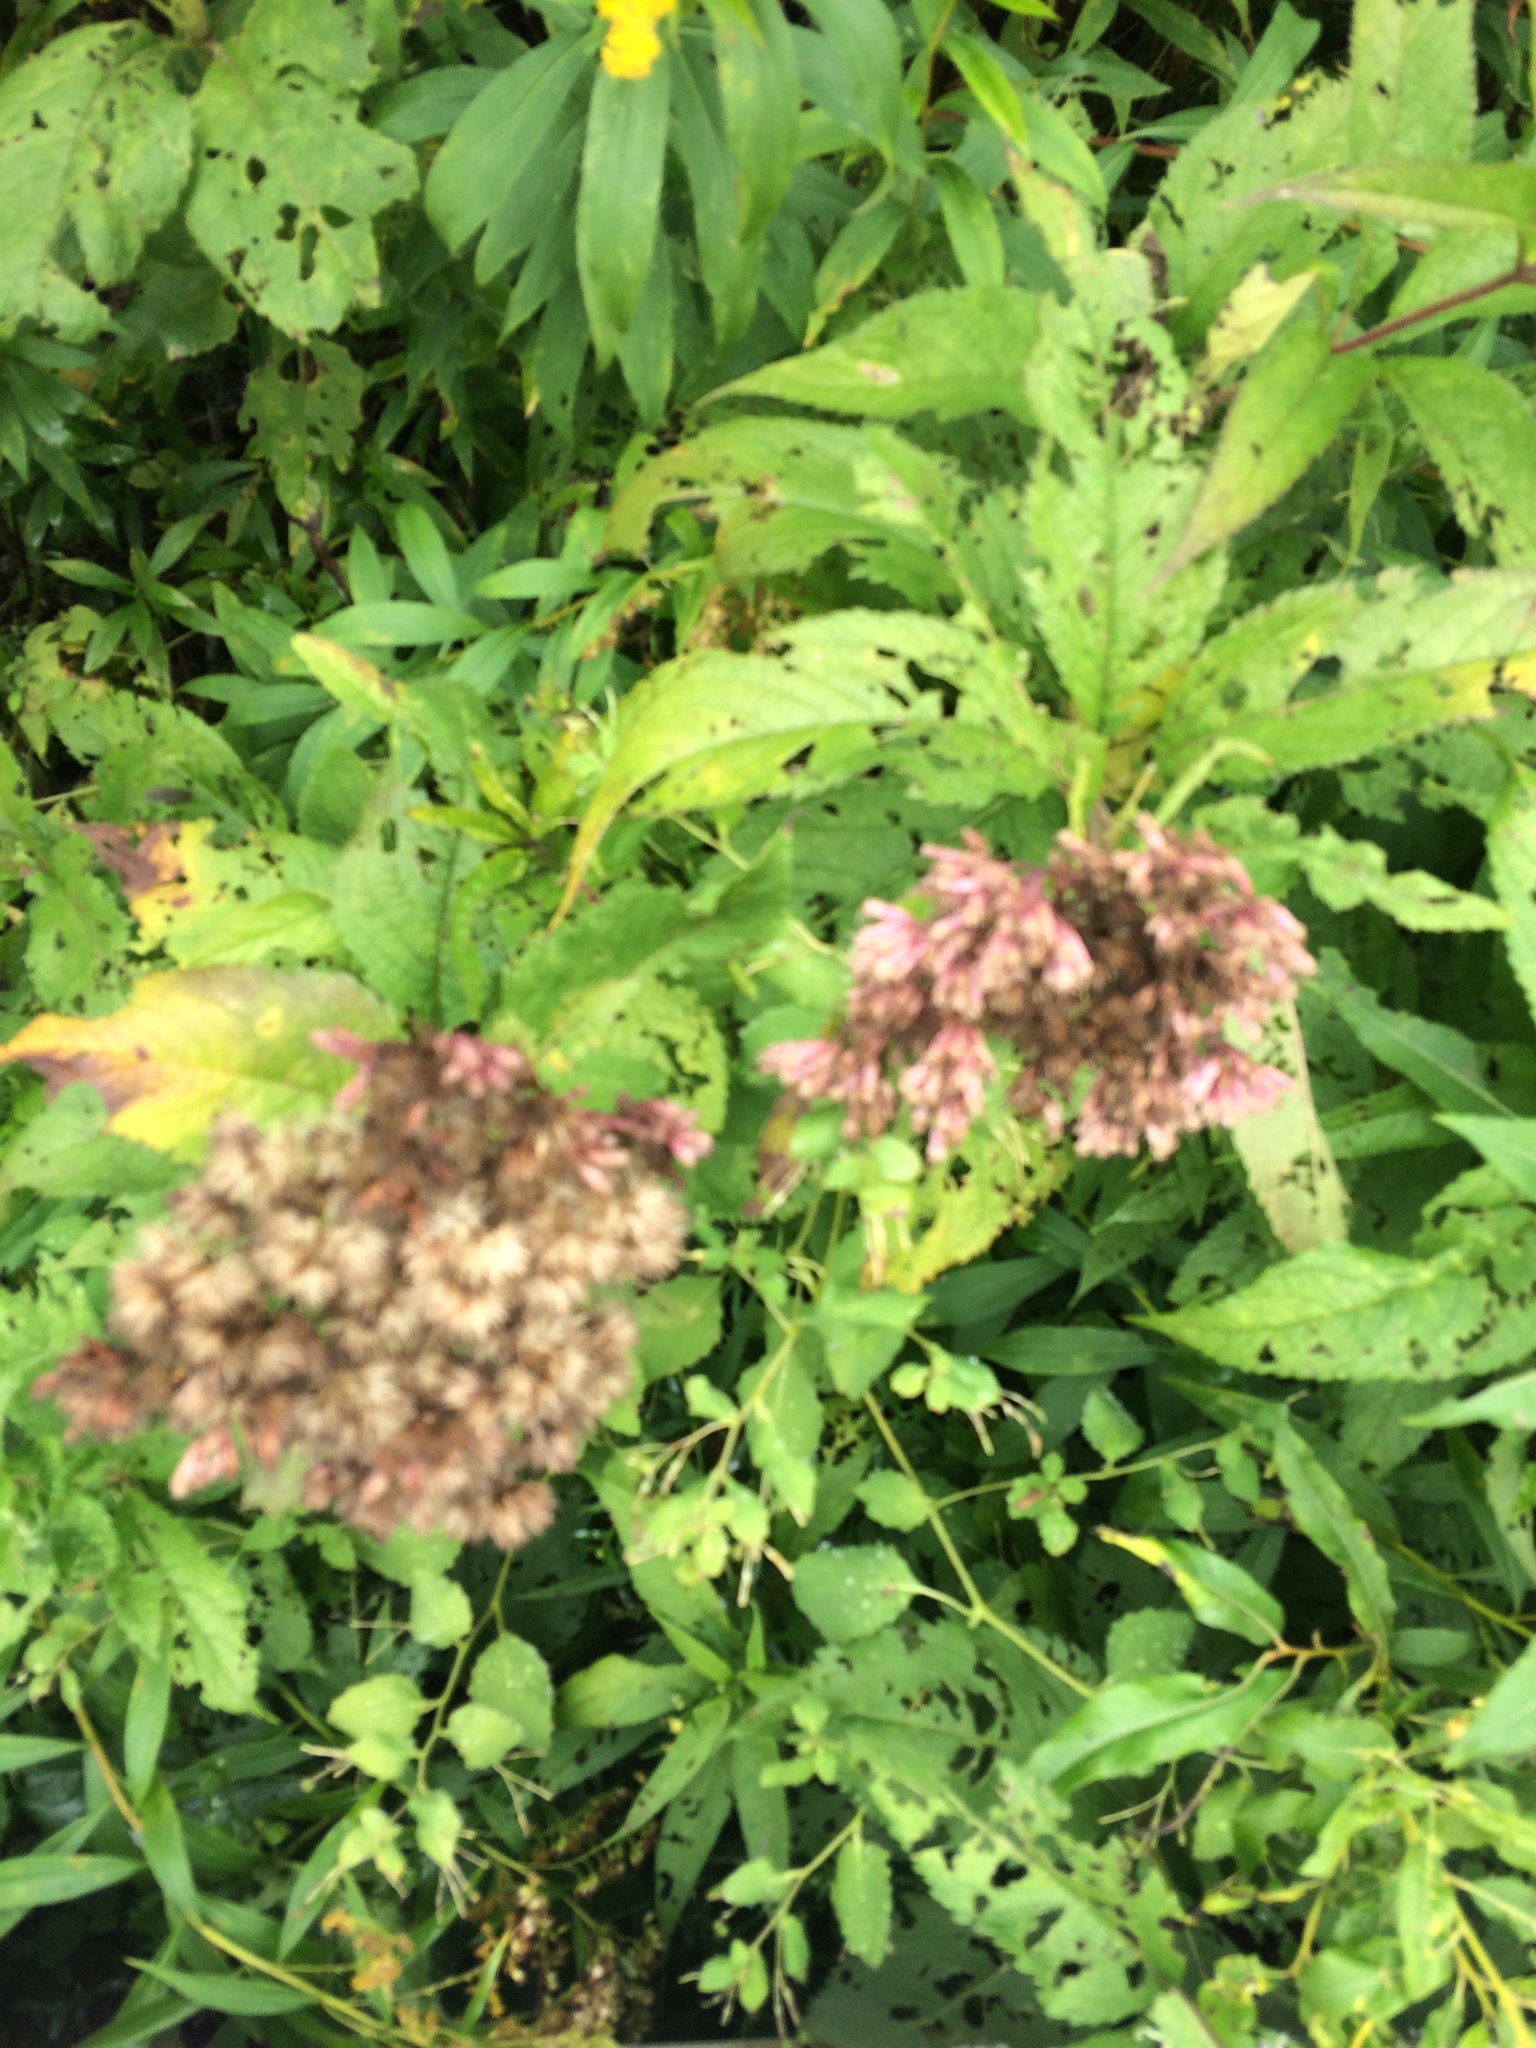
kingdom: Plantae
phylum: Tracheophyta
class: Magnoliopsida
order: Asterales
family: Asteraceae
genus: Eutrochium
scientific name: Eutrochium maculatum
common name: Spotted joe pye weed
